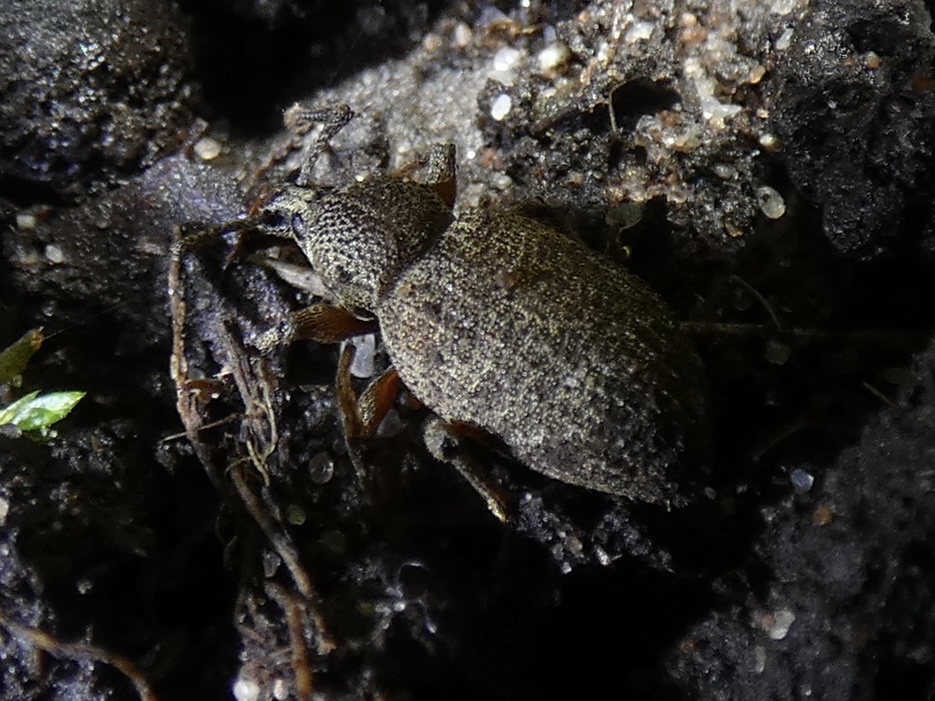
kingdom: Animalia
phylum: Arthropoda
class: Insecta
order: Coleoptera
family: Curculionidae
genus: Otiorhynchus
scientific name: Otiorhynchus singularis
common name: Clay-coloured weevil
